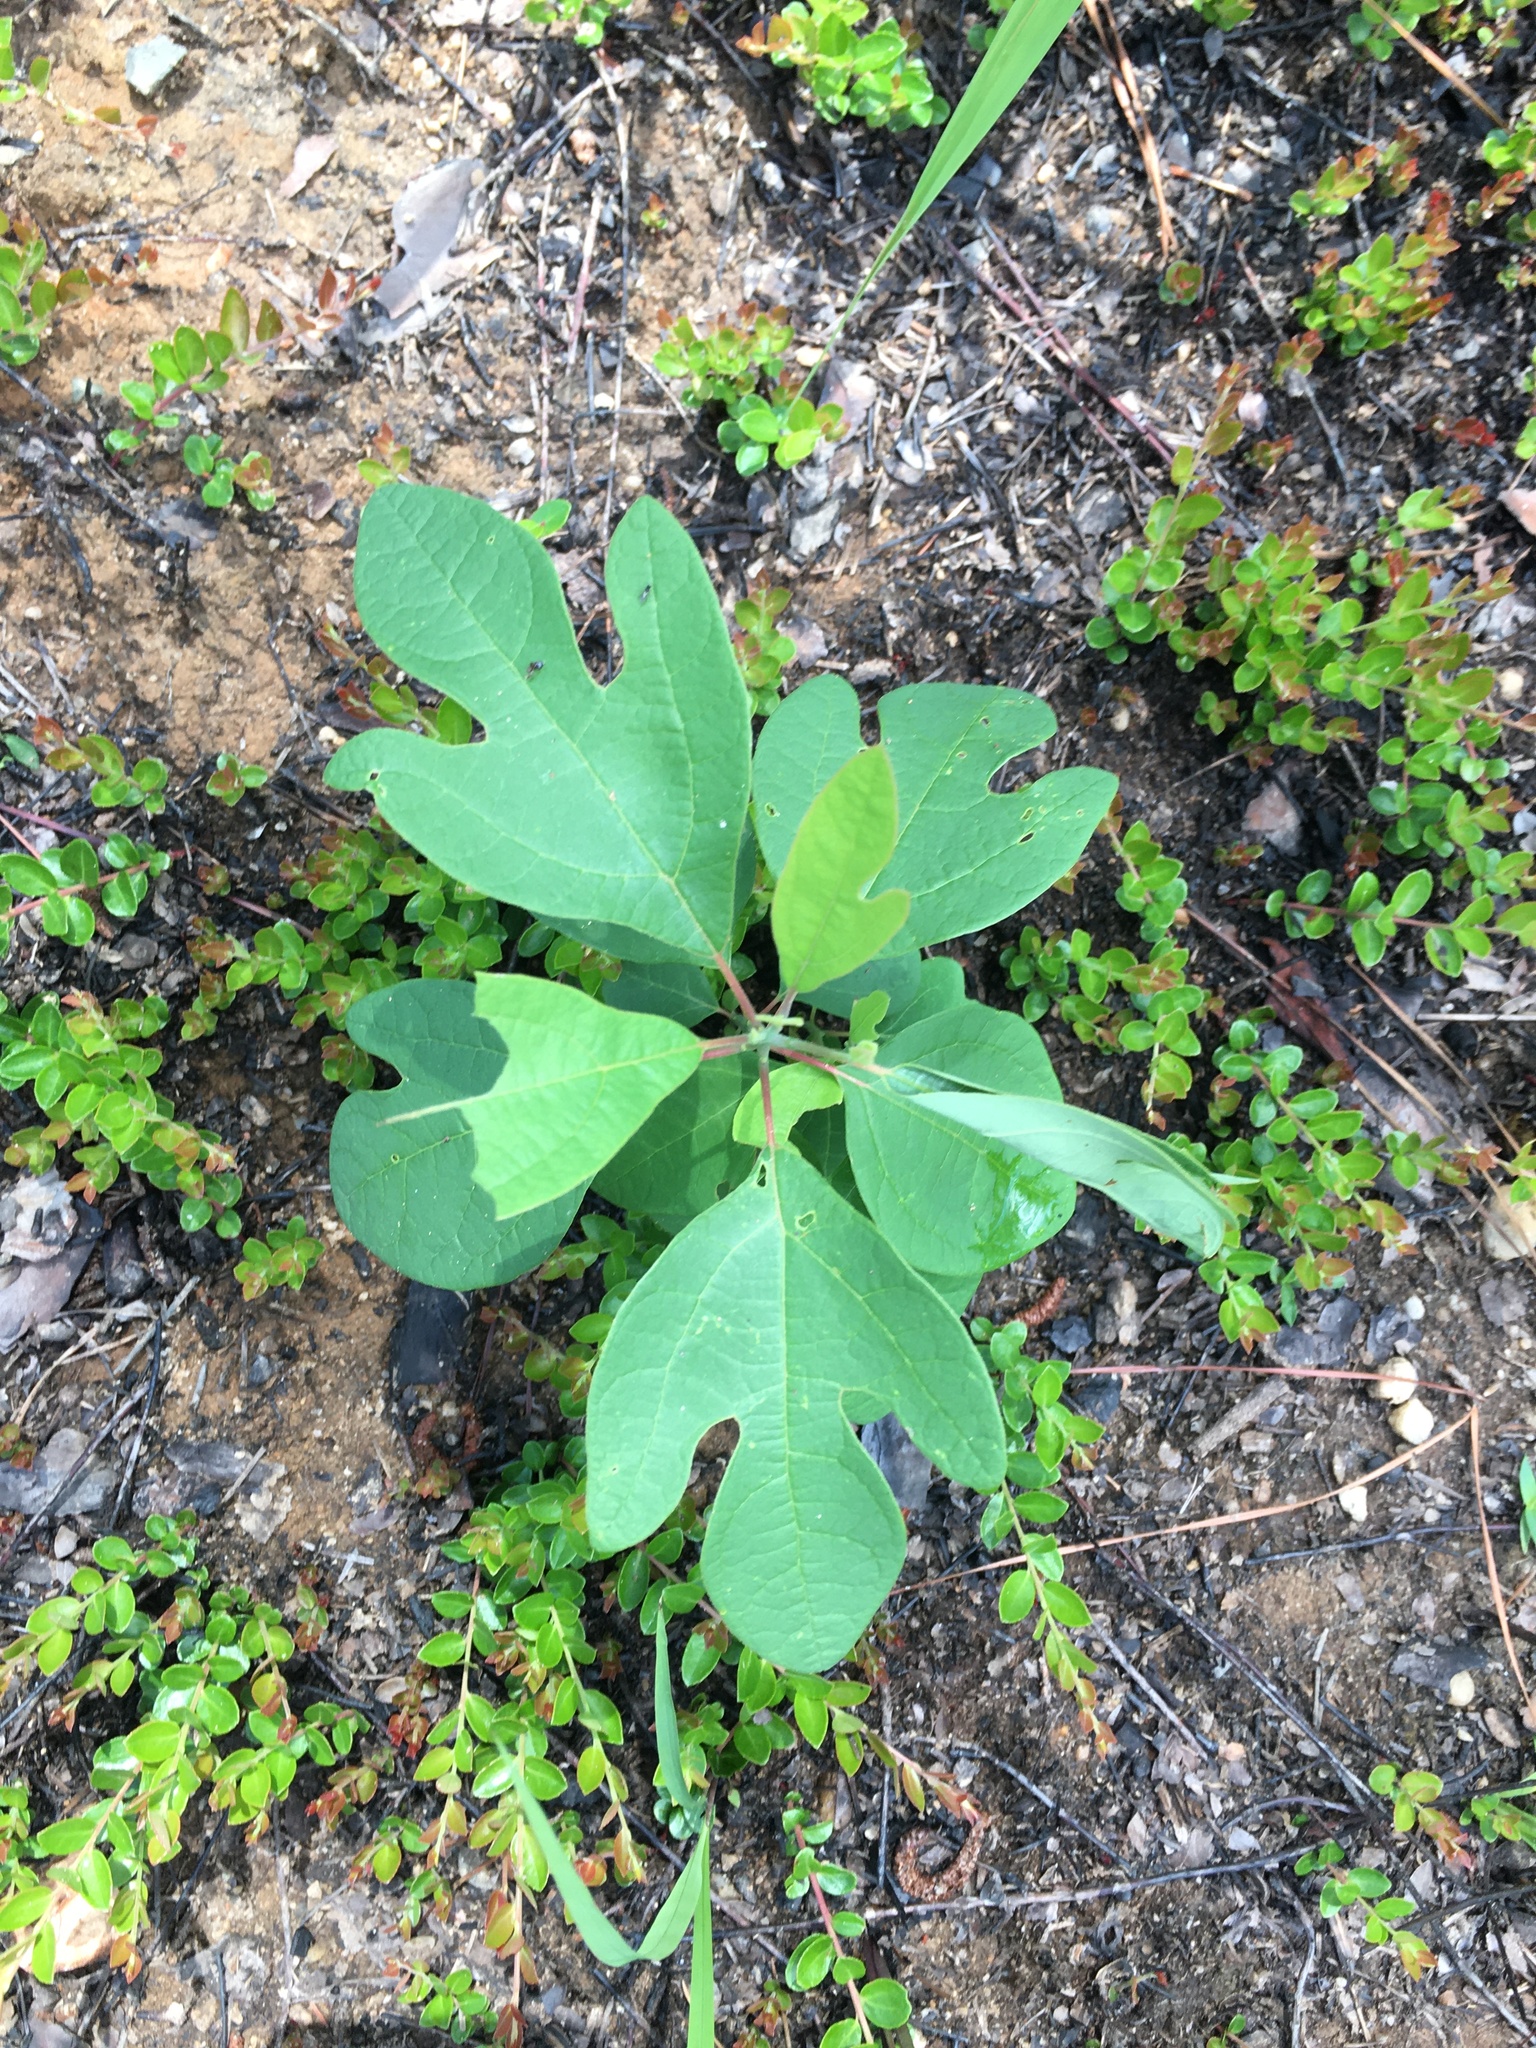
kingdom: Plantae
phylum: Tracheophyta
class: Magnoliopsida
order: Laurales
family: Lauraceae
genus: Sassafras
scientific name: Sassafras albidum
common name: Sassafras
